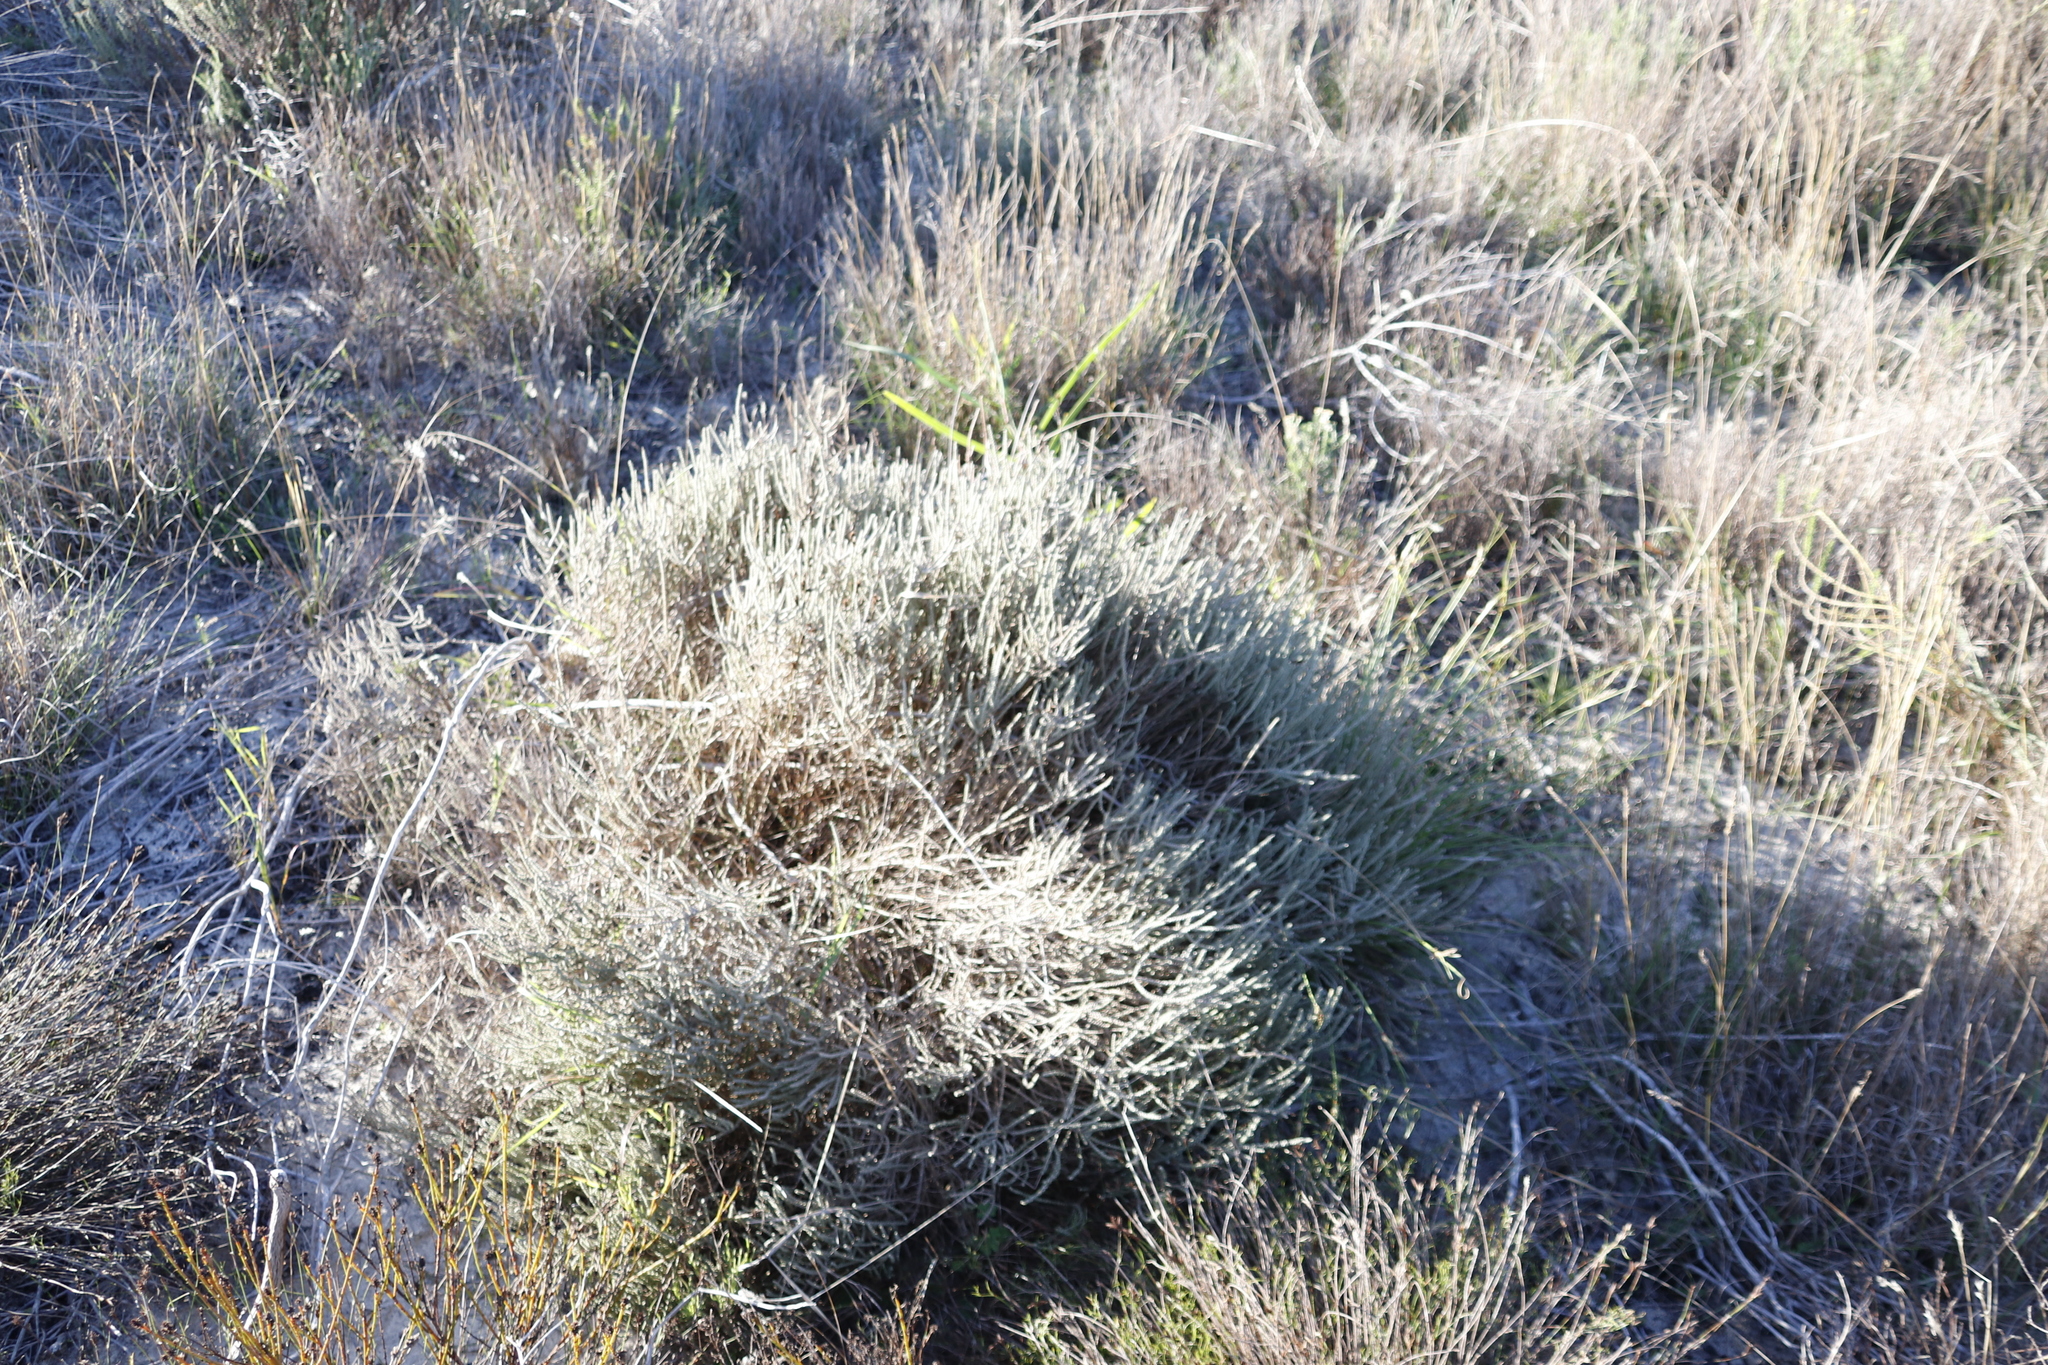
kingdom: Plantae
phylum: Tracheophyta
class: Magnoliopsida
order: Caryophyllales
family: Molluginaceae
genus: Polpoda
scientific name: Polpoda capensis
